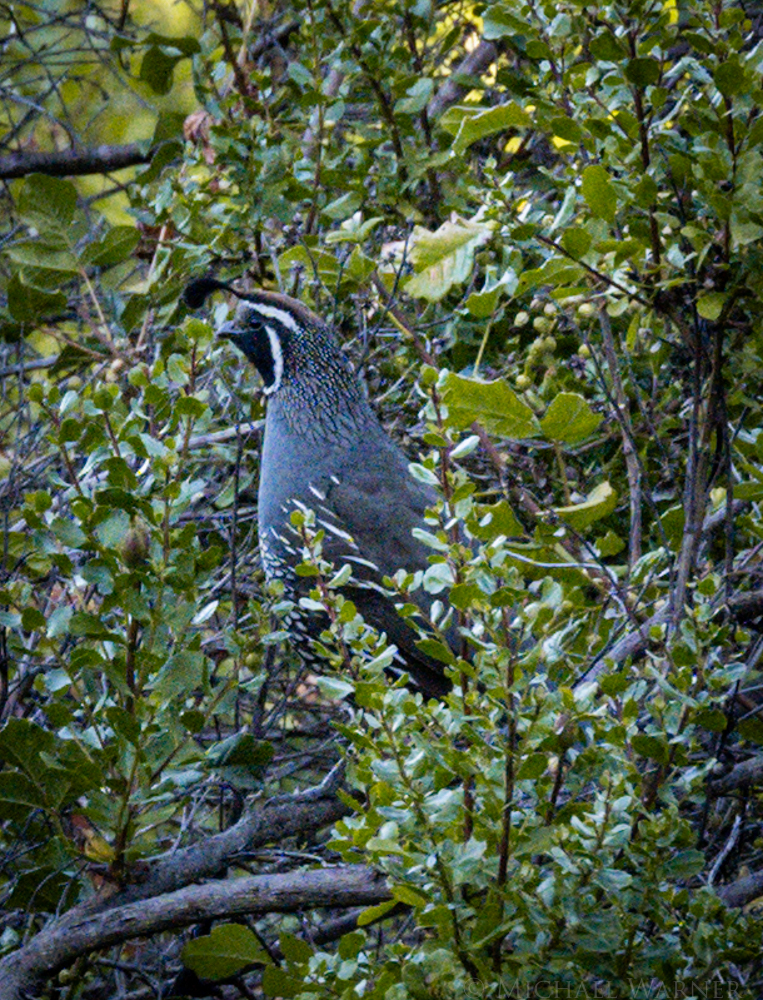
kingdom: Animalia
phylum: Chordata
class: Aves
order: Galliformes
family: Odontophoridae
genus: Callipepla
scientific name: Callipepla californica
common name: California quail
